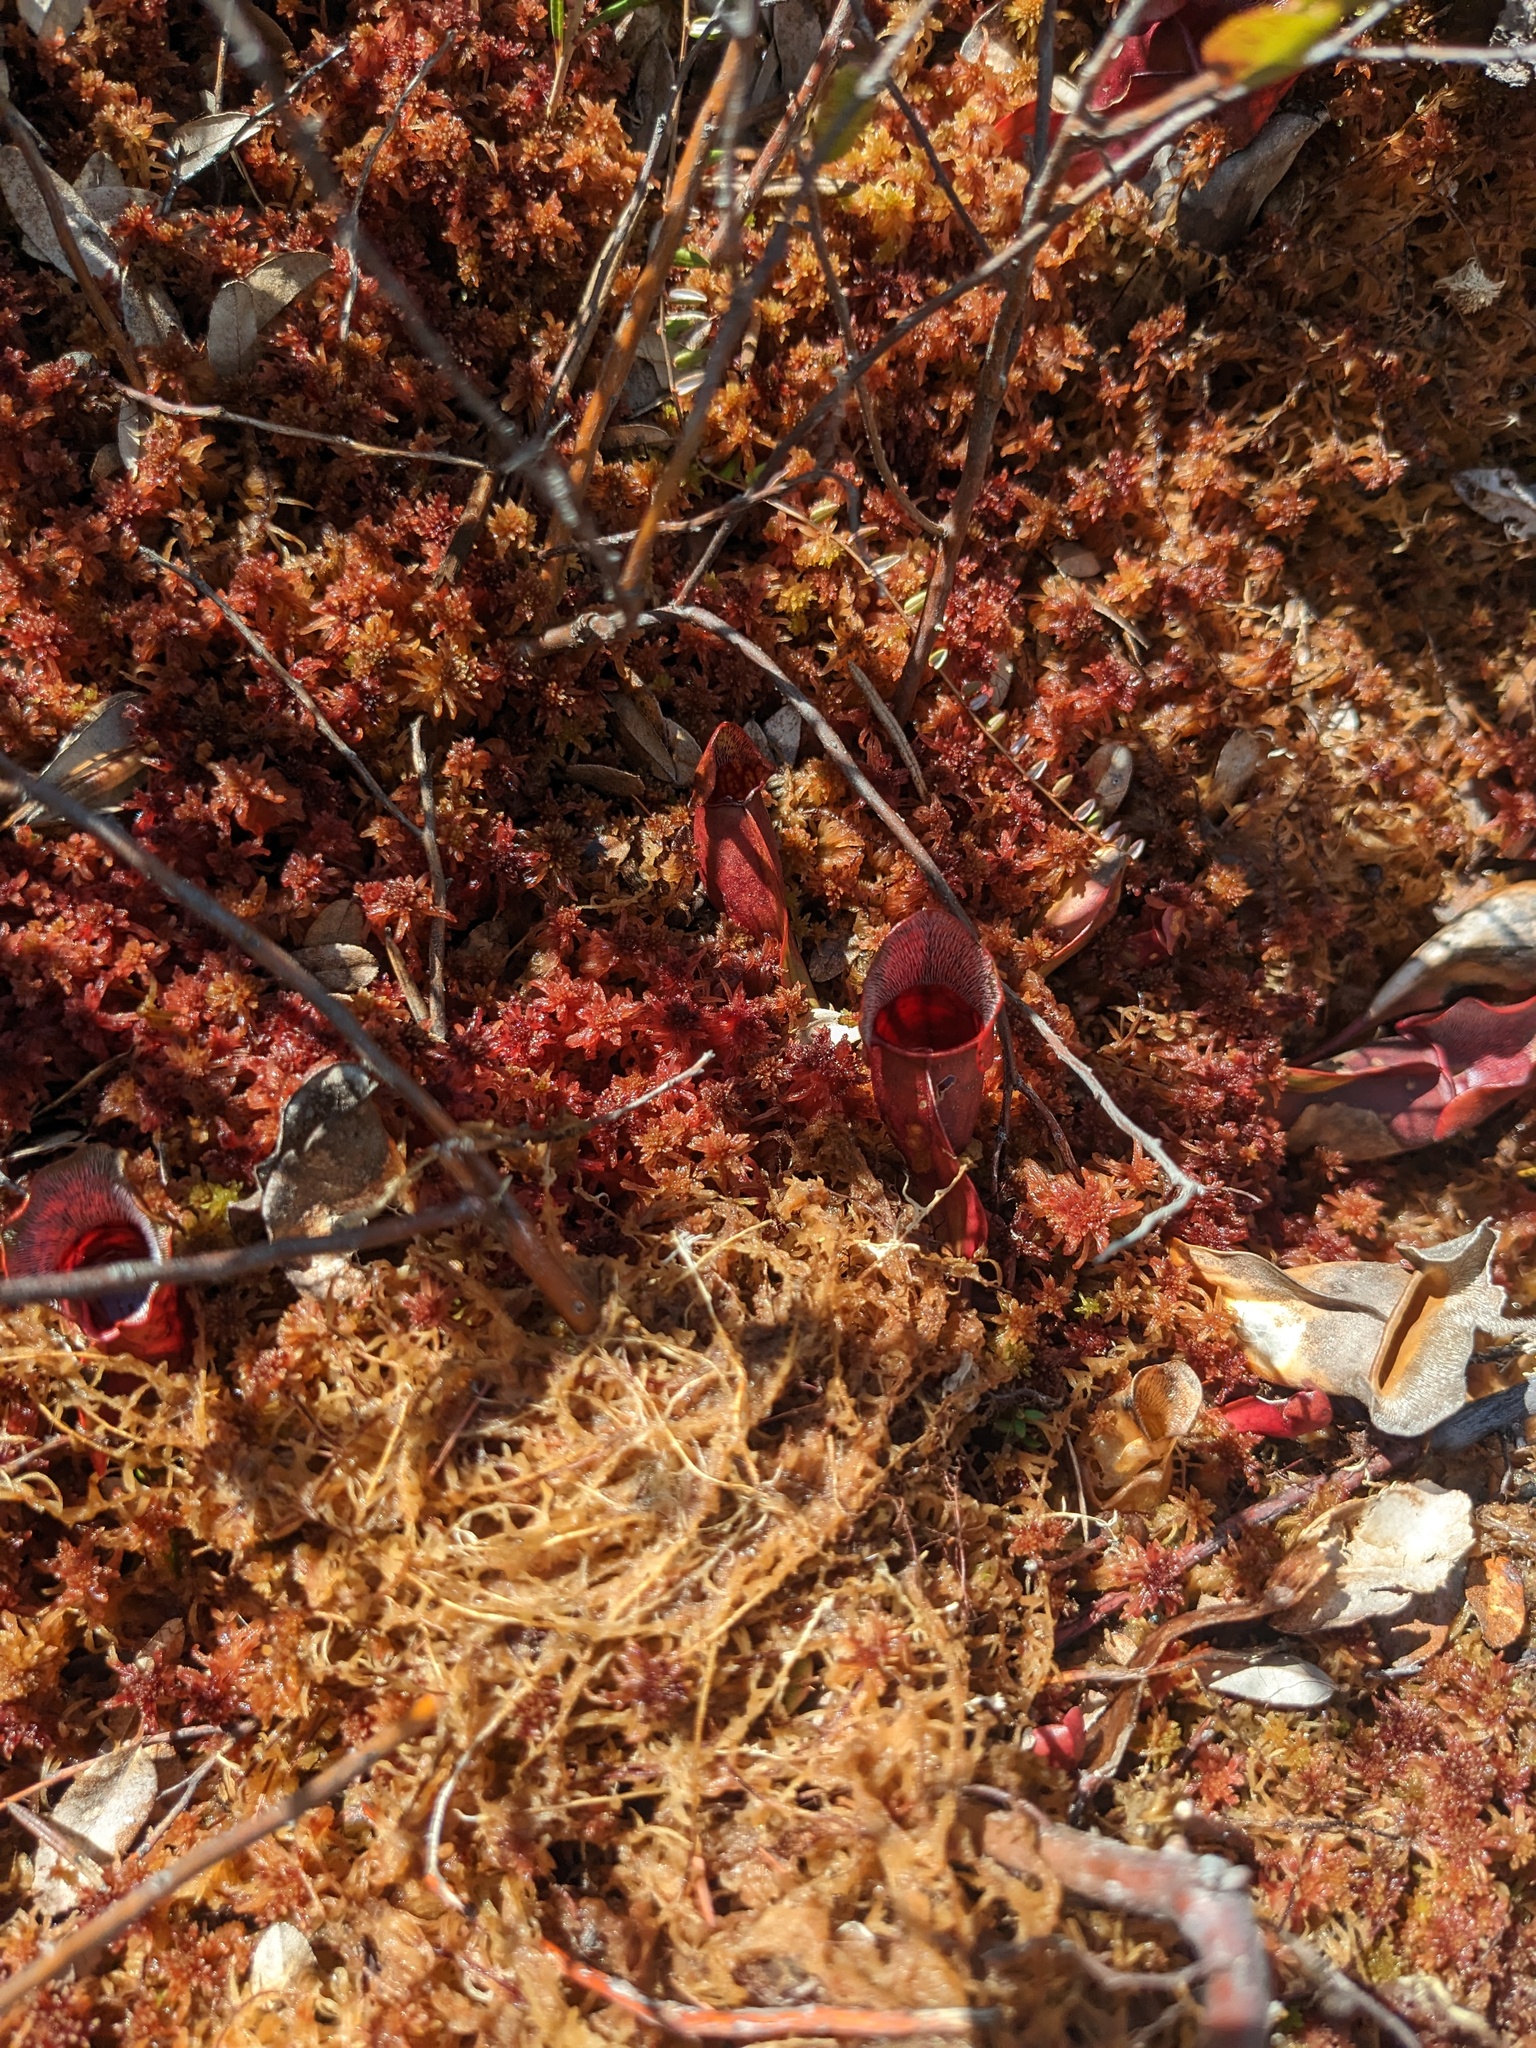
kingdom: Plantae
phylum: Tracheophyta
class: Magnoliopsida
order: Ericales
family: Sarraceniaceae
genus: Sarracenia
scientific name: Sarracenia purpurea
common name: Pitcherplant
